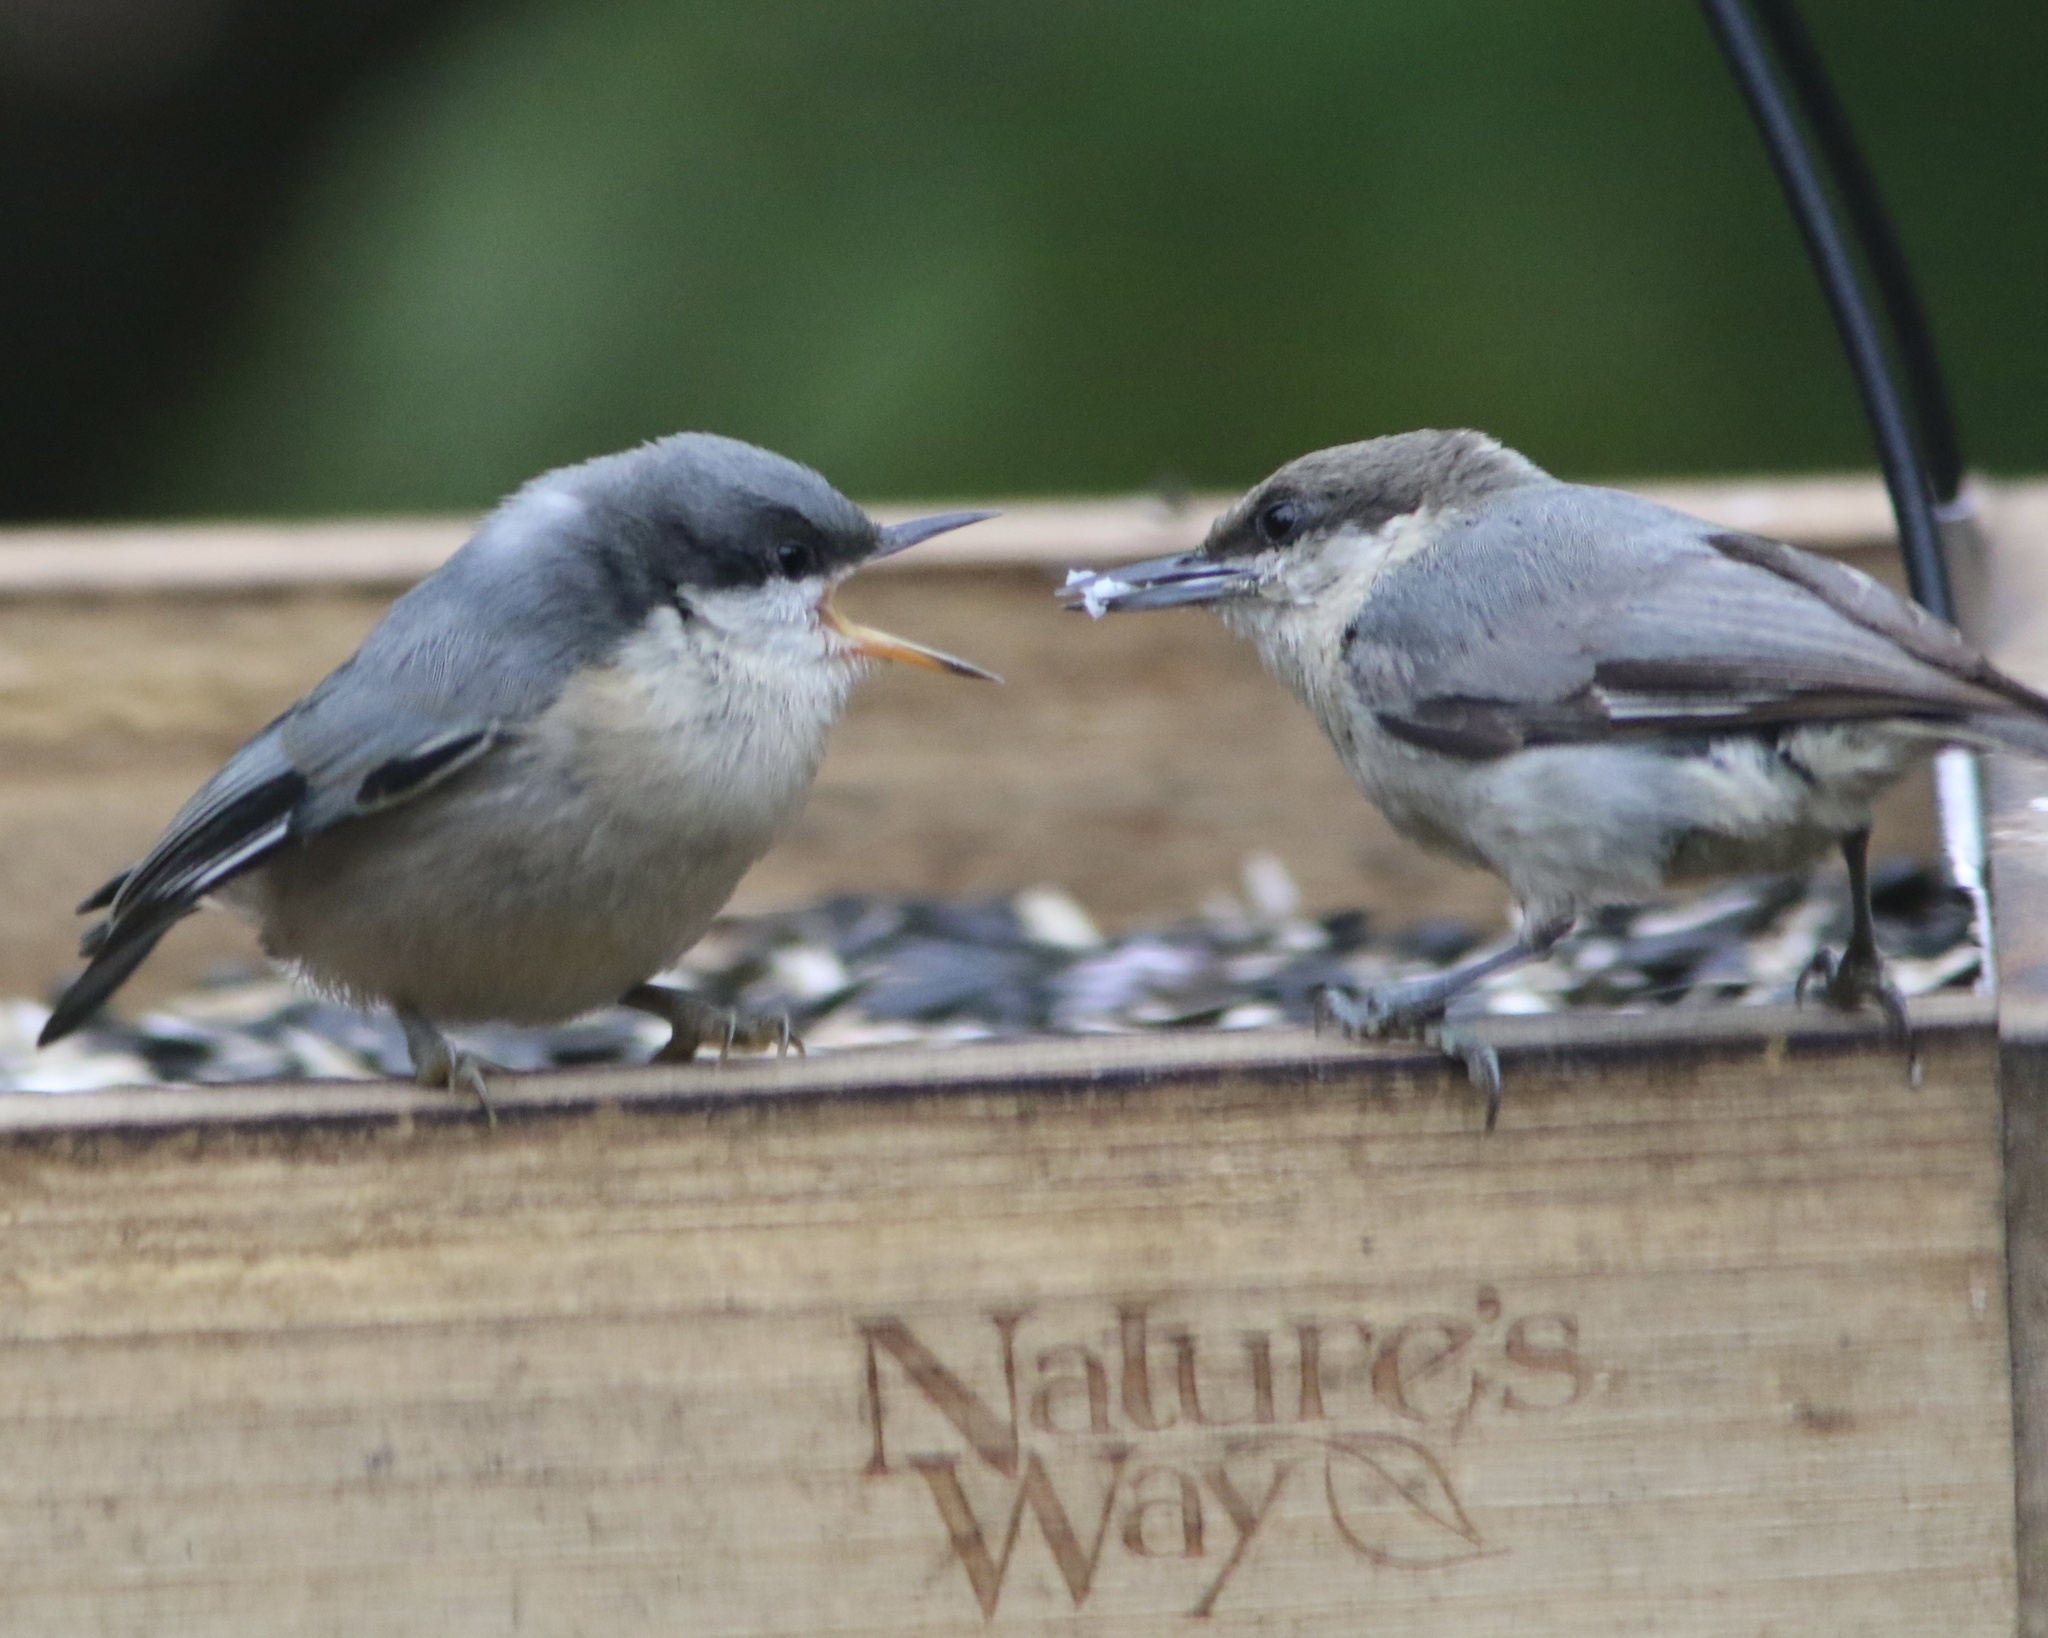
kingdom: Animalia
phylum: Chordata
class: Aves
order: Passeriformes
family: Sittidae
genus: Sitta
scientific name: Sitta pygmaea
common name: Pygmy nuthatch
